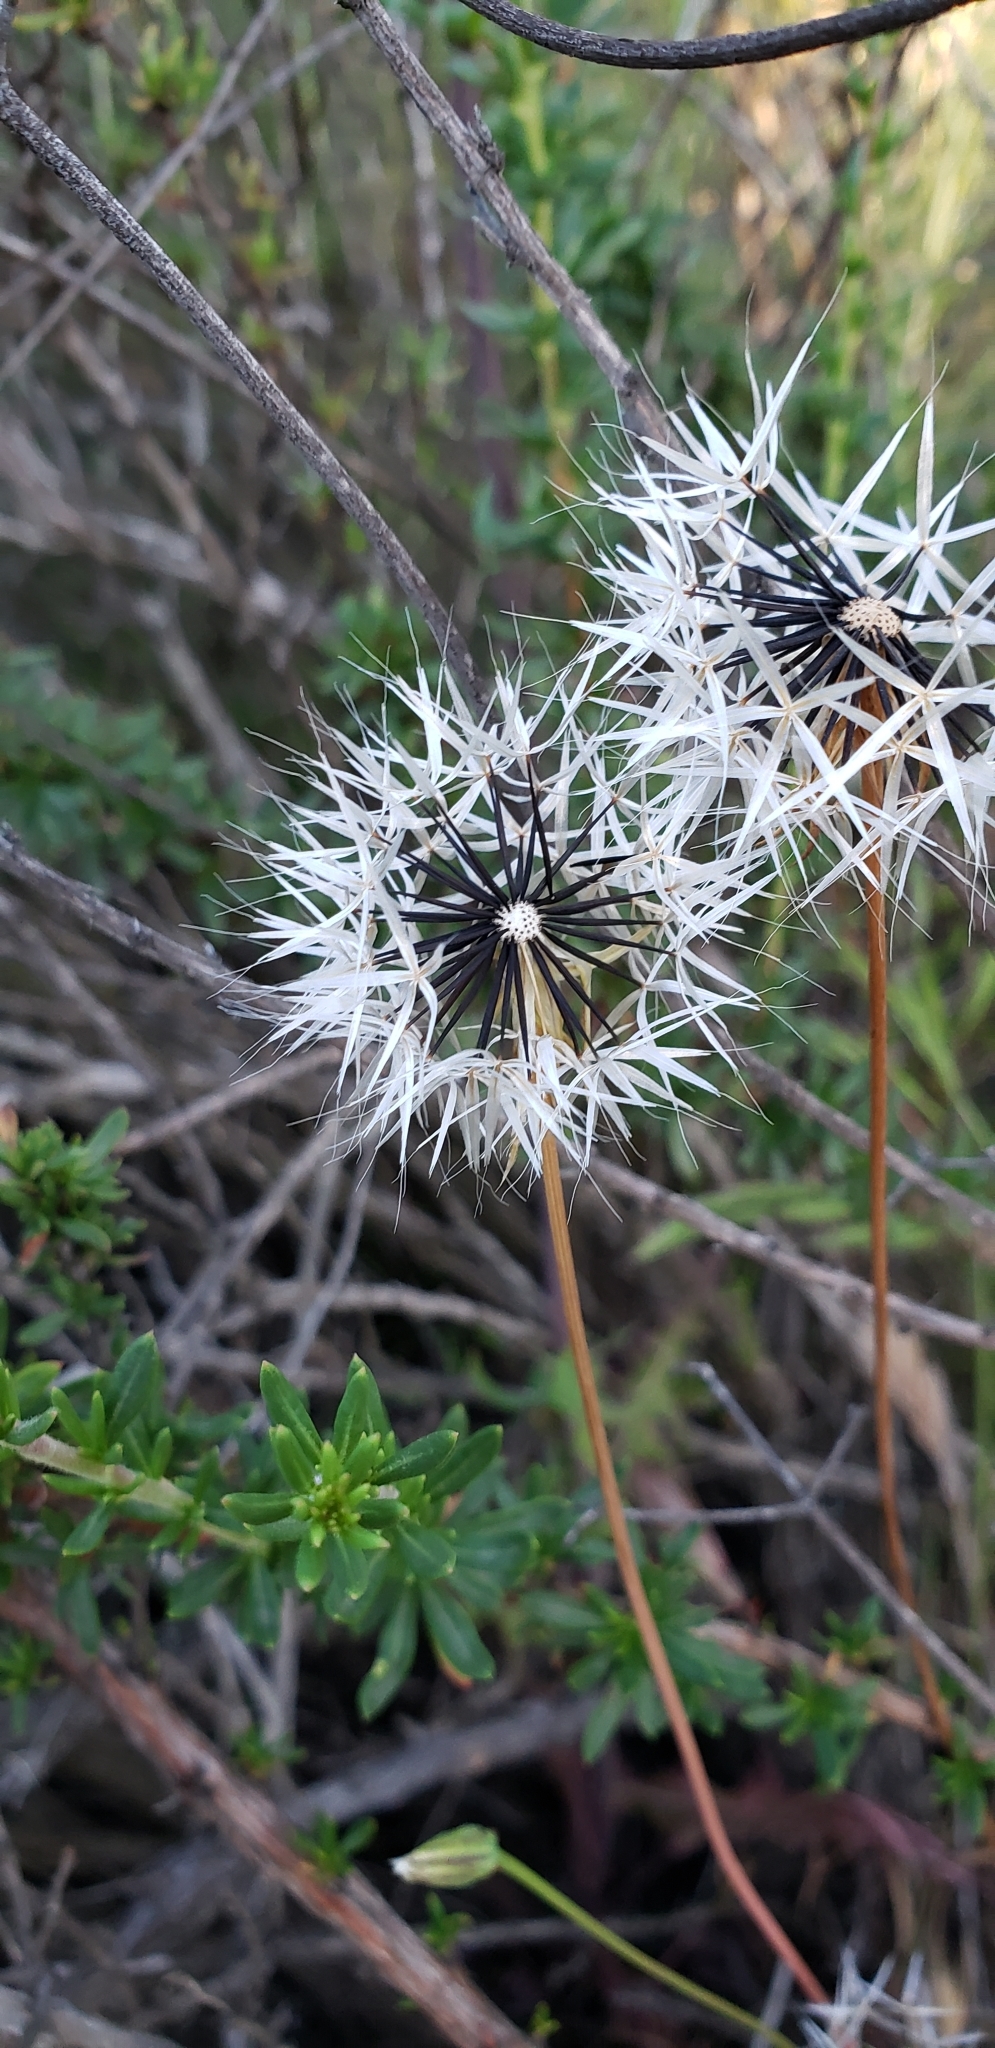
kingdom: Plantae
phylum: Tracheophyta
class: Magnoliopsida
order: Asterales
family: Asteraceae
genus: Microseris
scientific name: Microseris lindleyi
